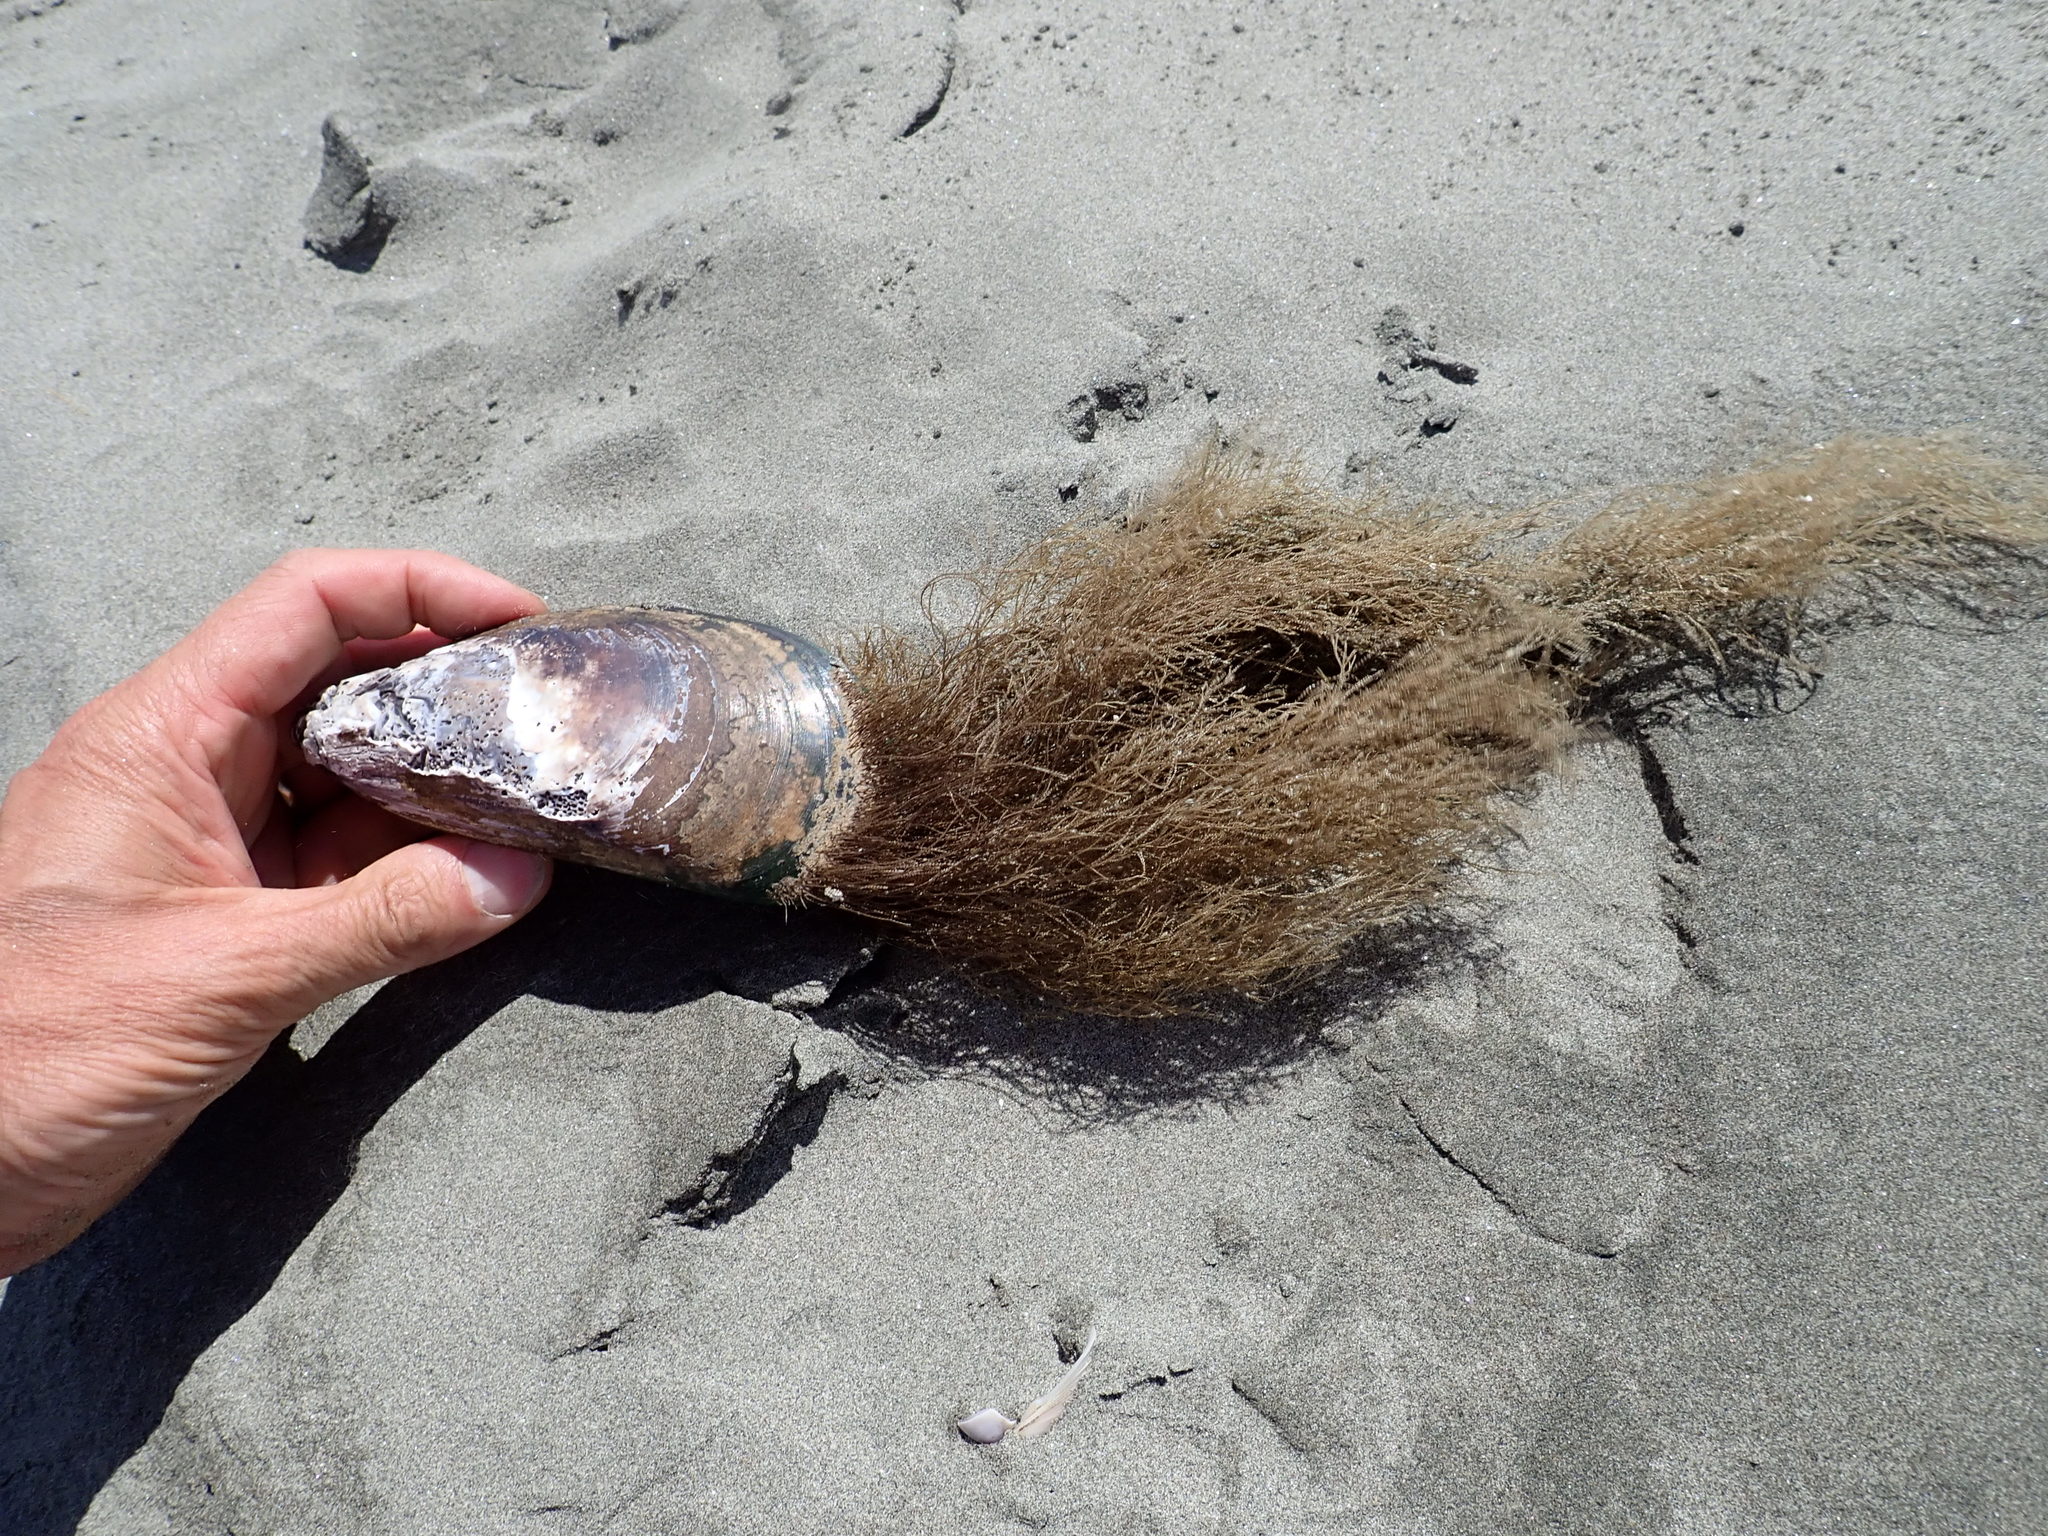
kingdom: Animalia
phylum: Cnidaria
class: Hydrozoa
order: Leptothecata
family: Sertulariidae
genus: Amphisbetia
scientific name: Amphisbetia bispinosa
